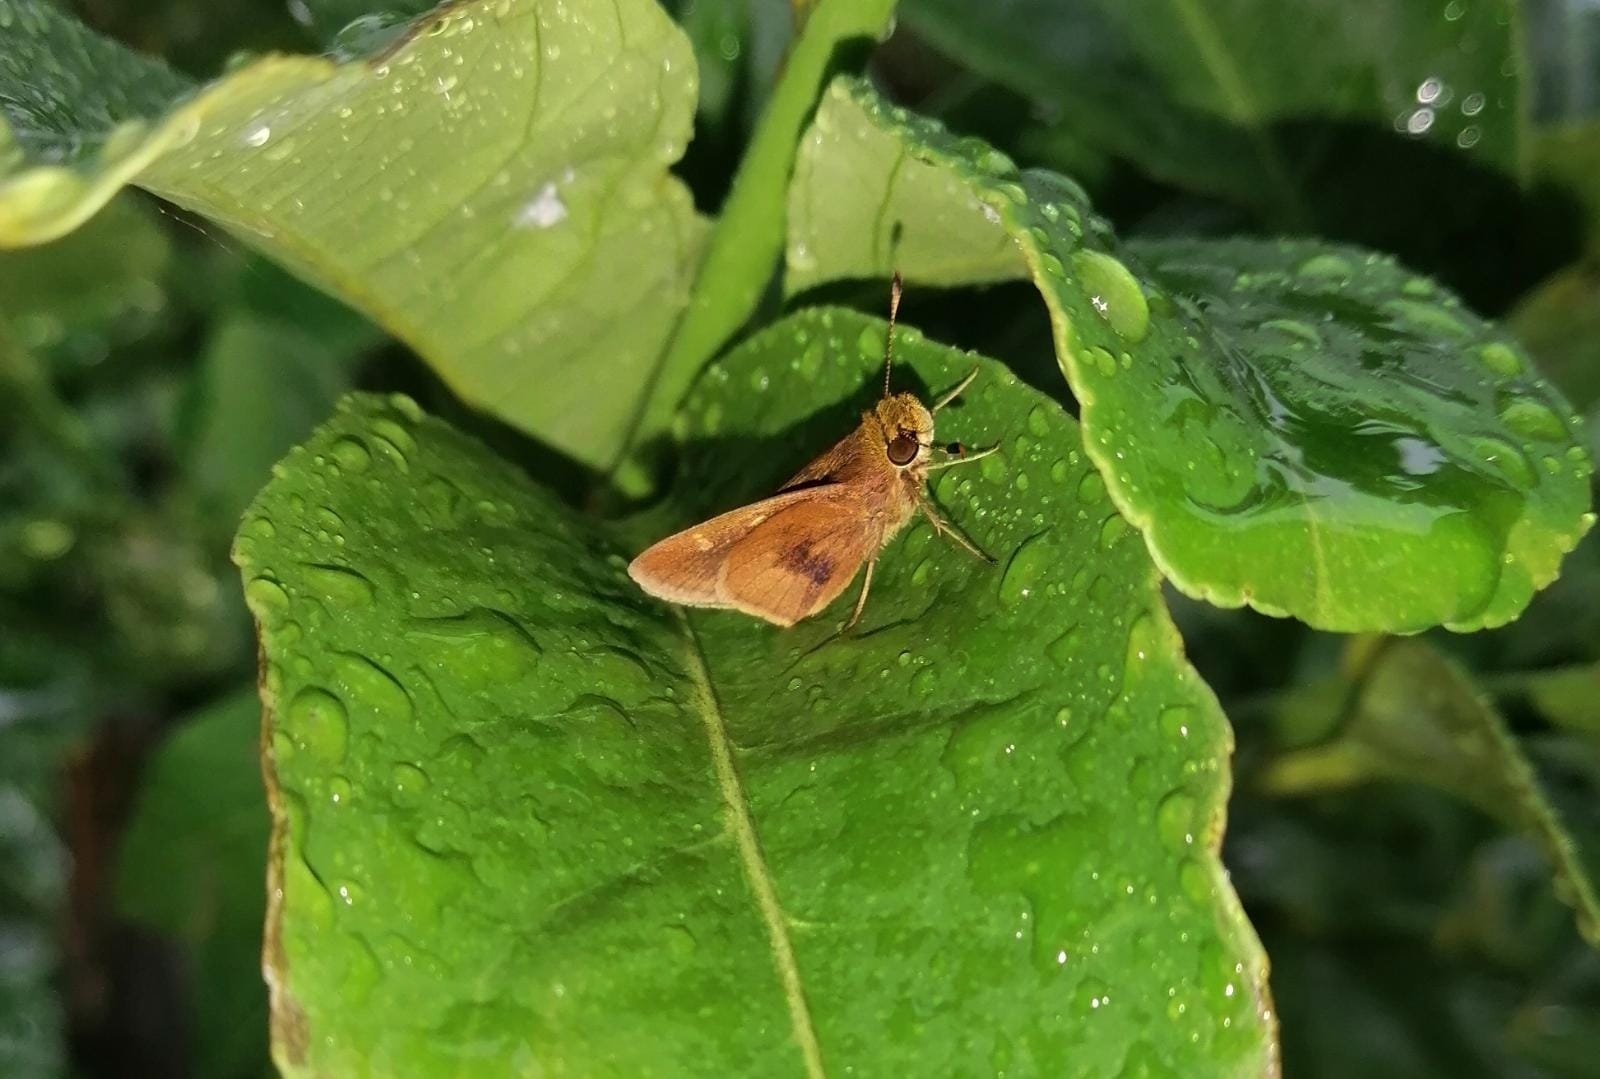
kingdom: Animalia
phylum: Arthropoda
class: Insecta
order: Lepidoptera
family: Hesperiidae
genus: Conga
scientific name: Conga iheringii
